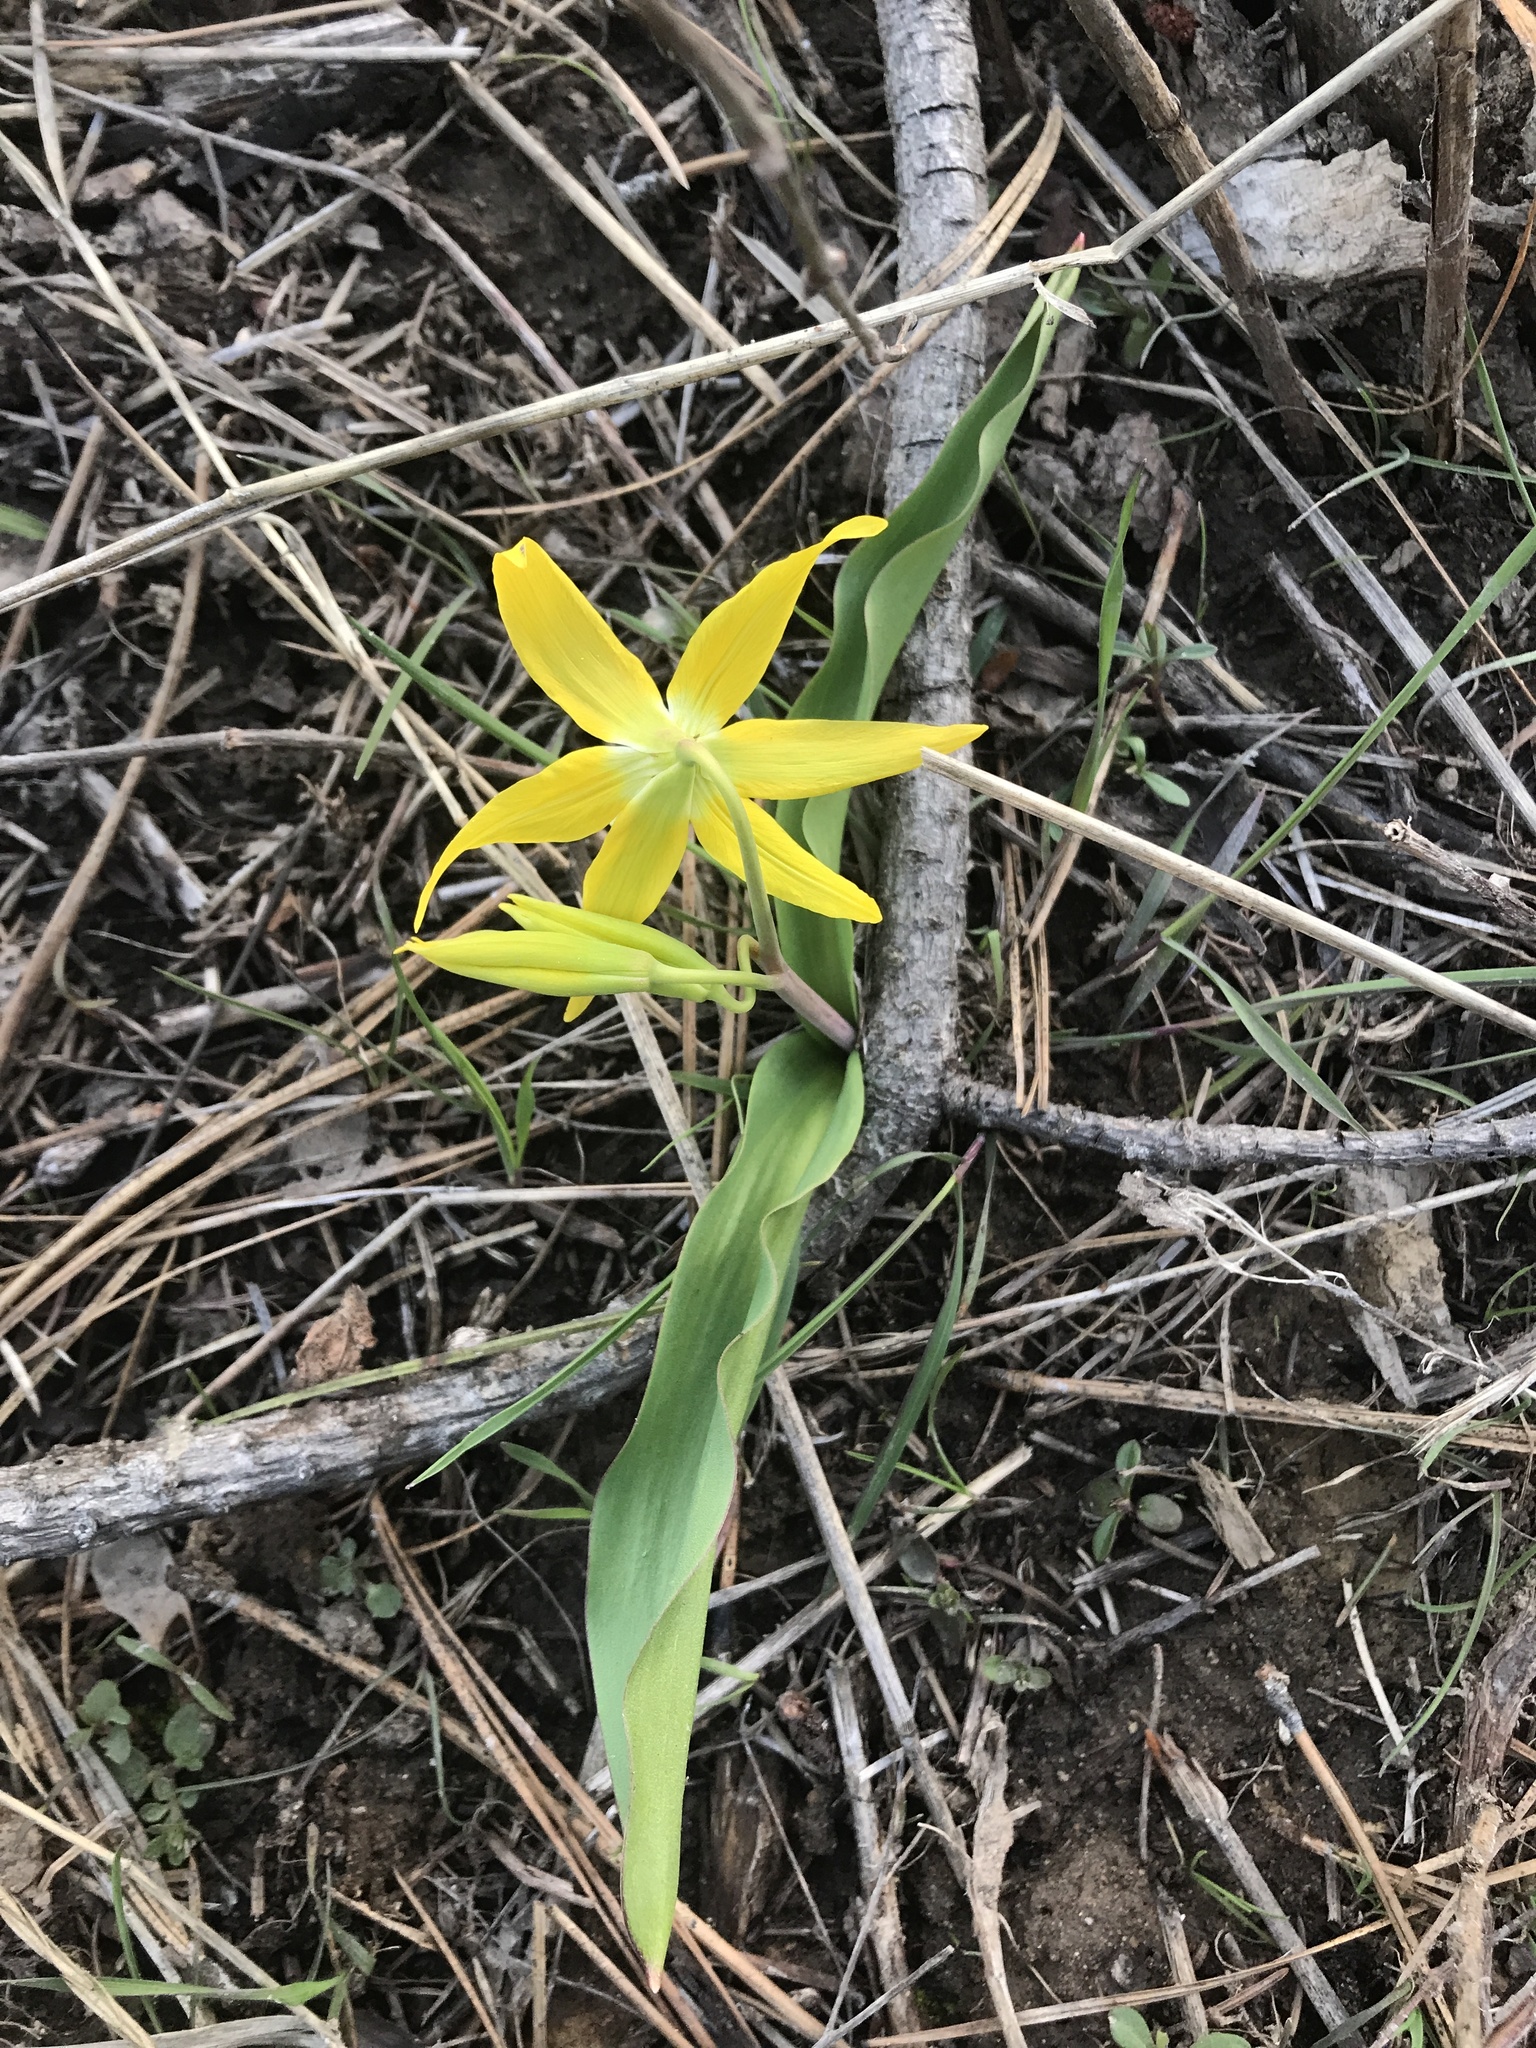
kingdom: Plantae
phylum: Tracheophyta
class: Liliopsida
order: Liliales
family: Liliaceae
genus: Erythronium
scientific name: Erythronium grandiflorum
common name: Avalanche-lily
